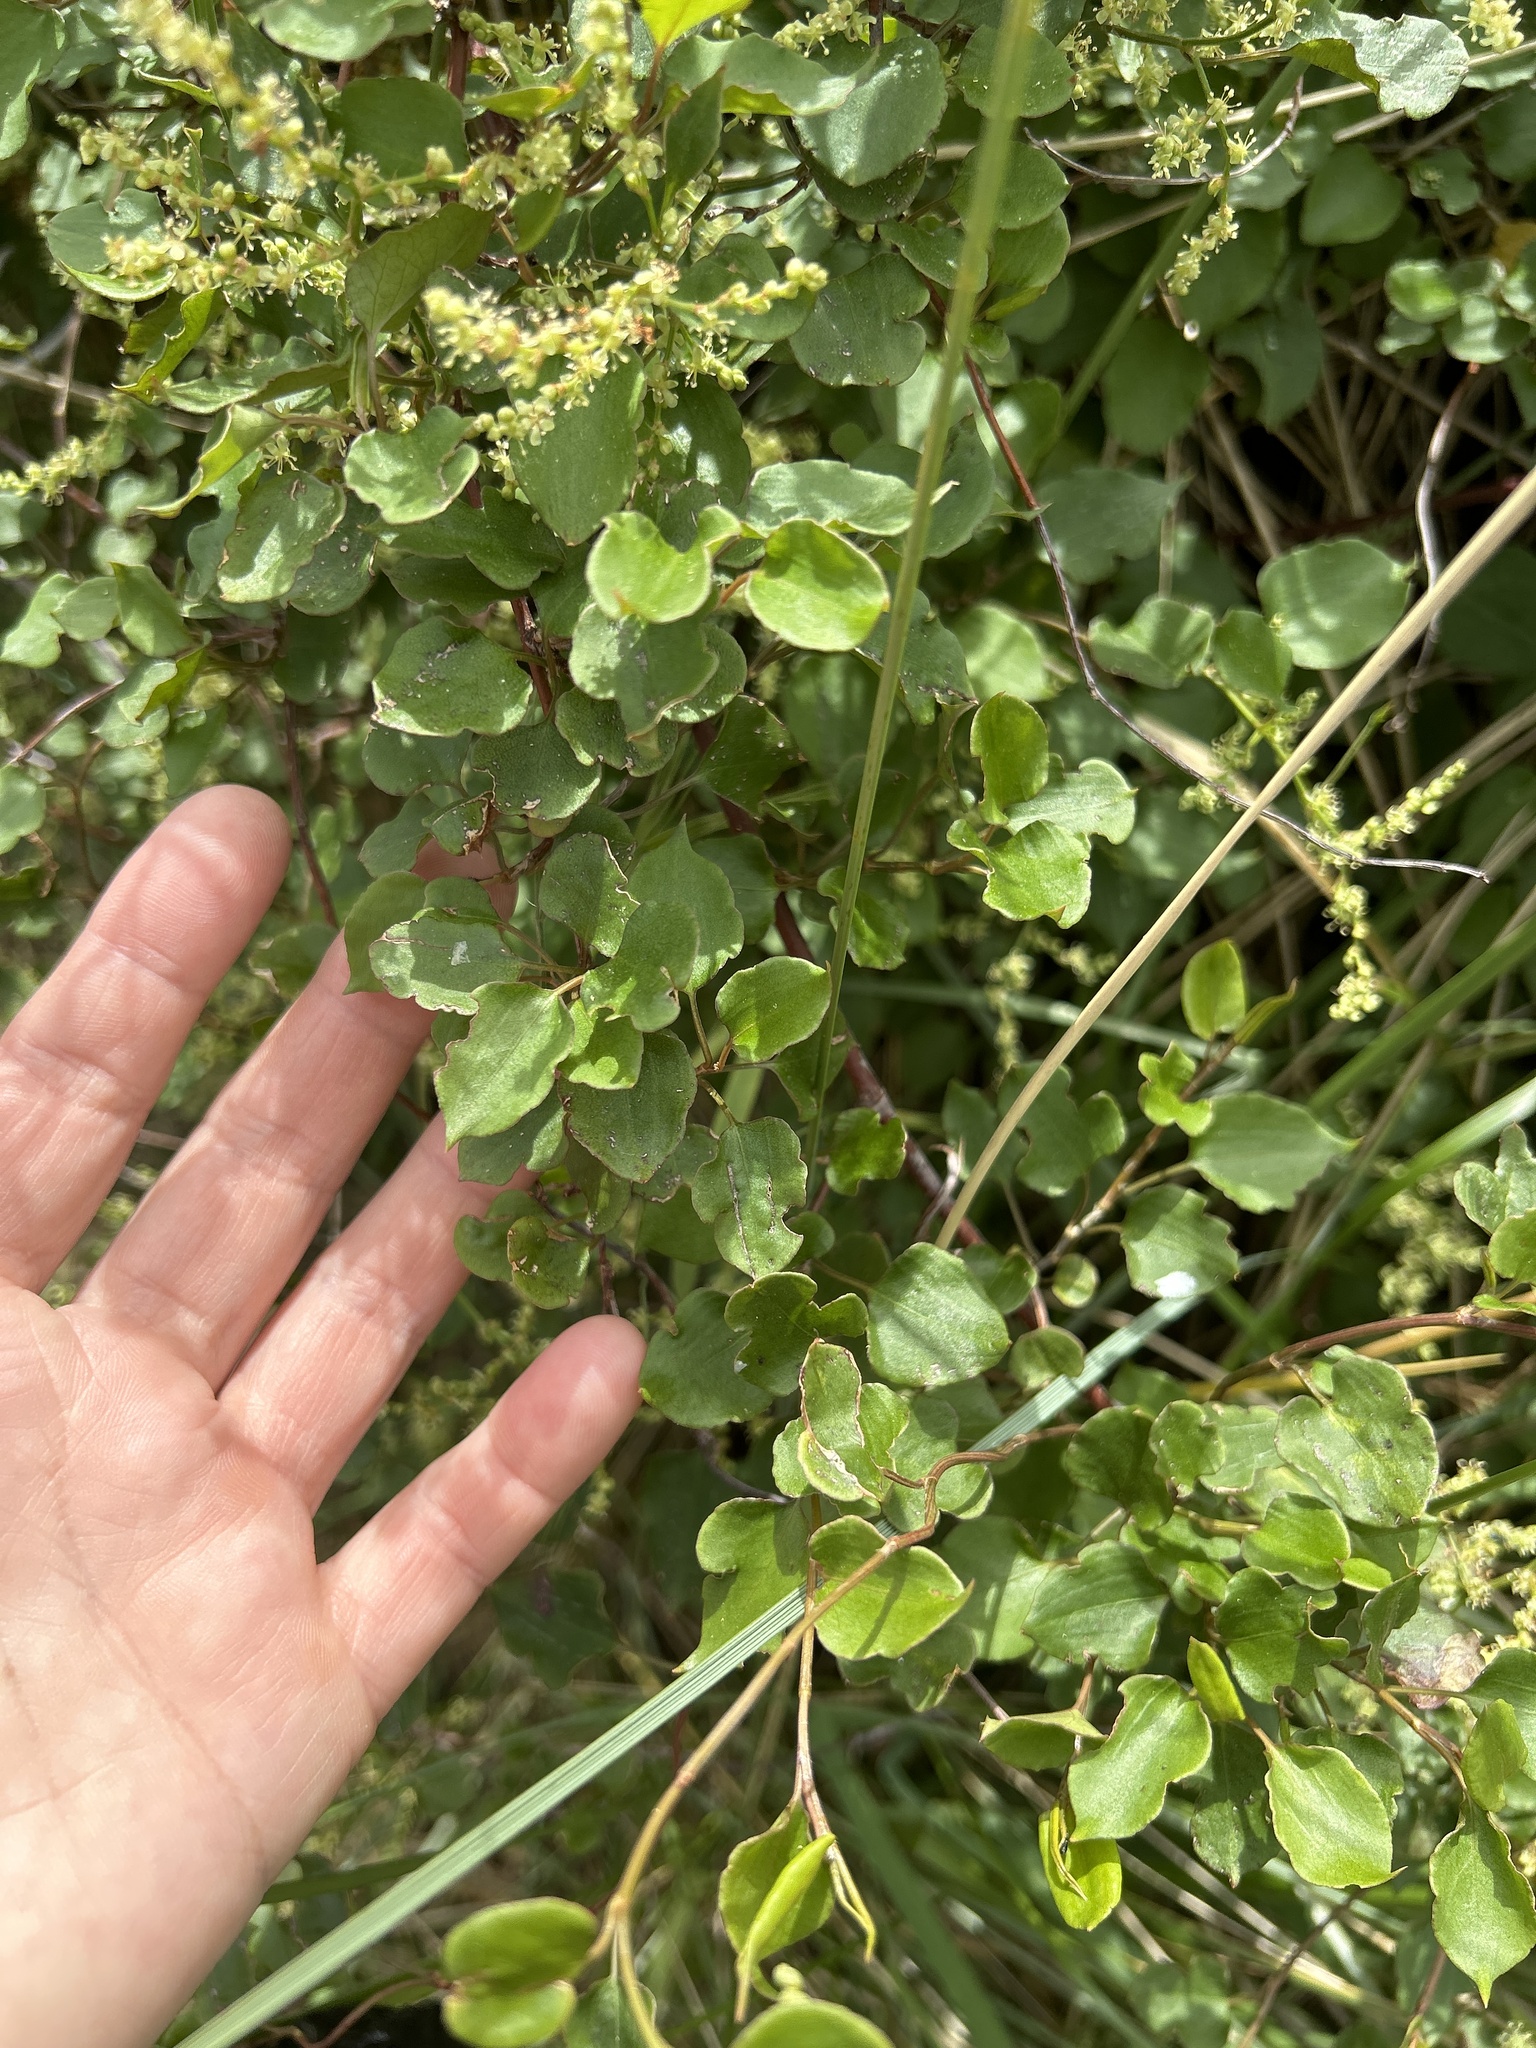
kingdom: Plantae
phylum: Tracheophyta
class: Magnoliopsida
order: Caryophyllales
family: Polygonaceae
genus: Muehlenbeckia
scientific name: Muehlenbeckia australis
